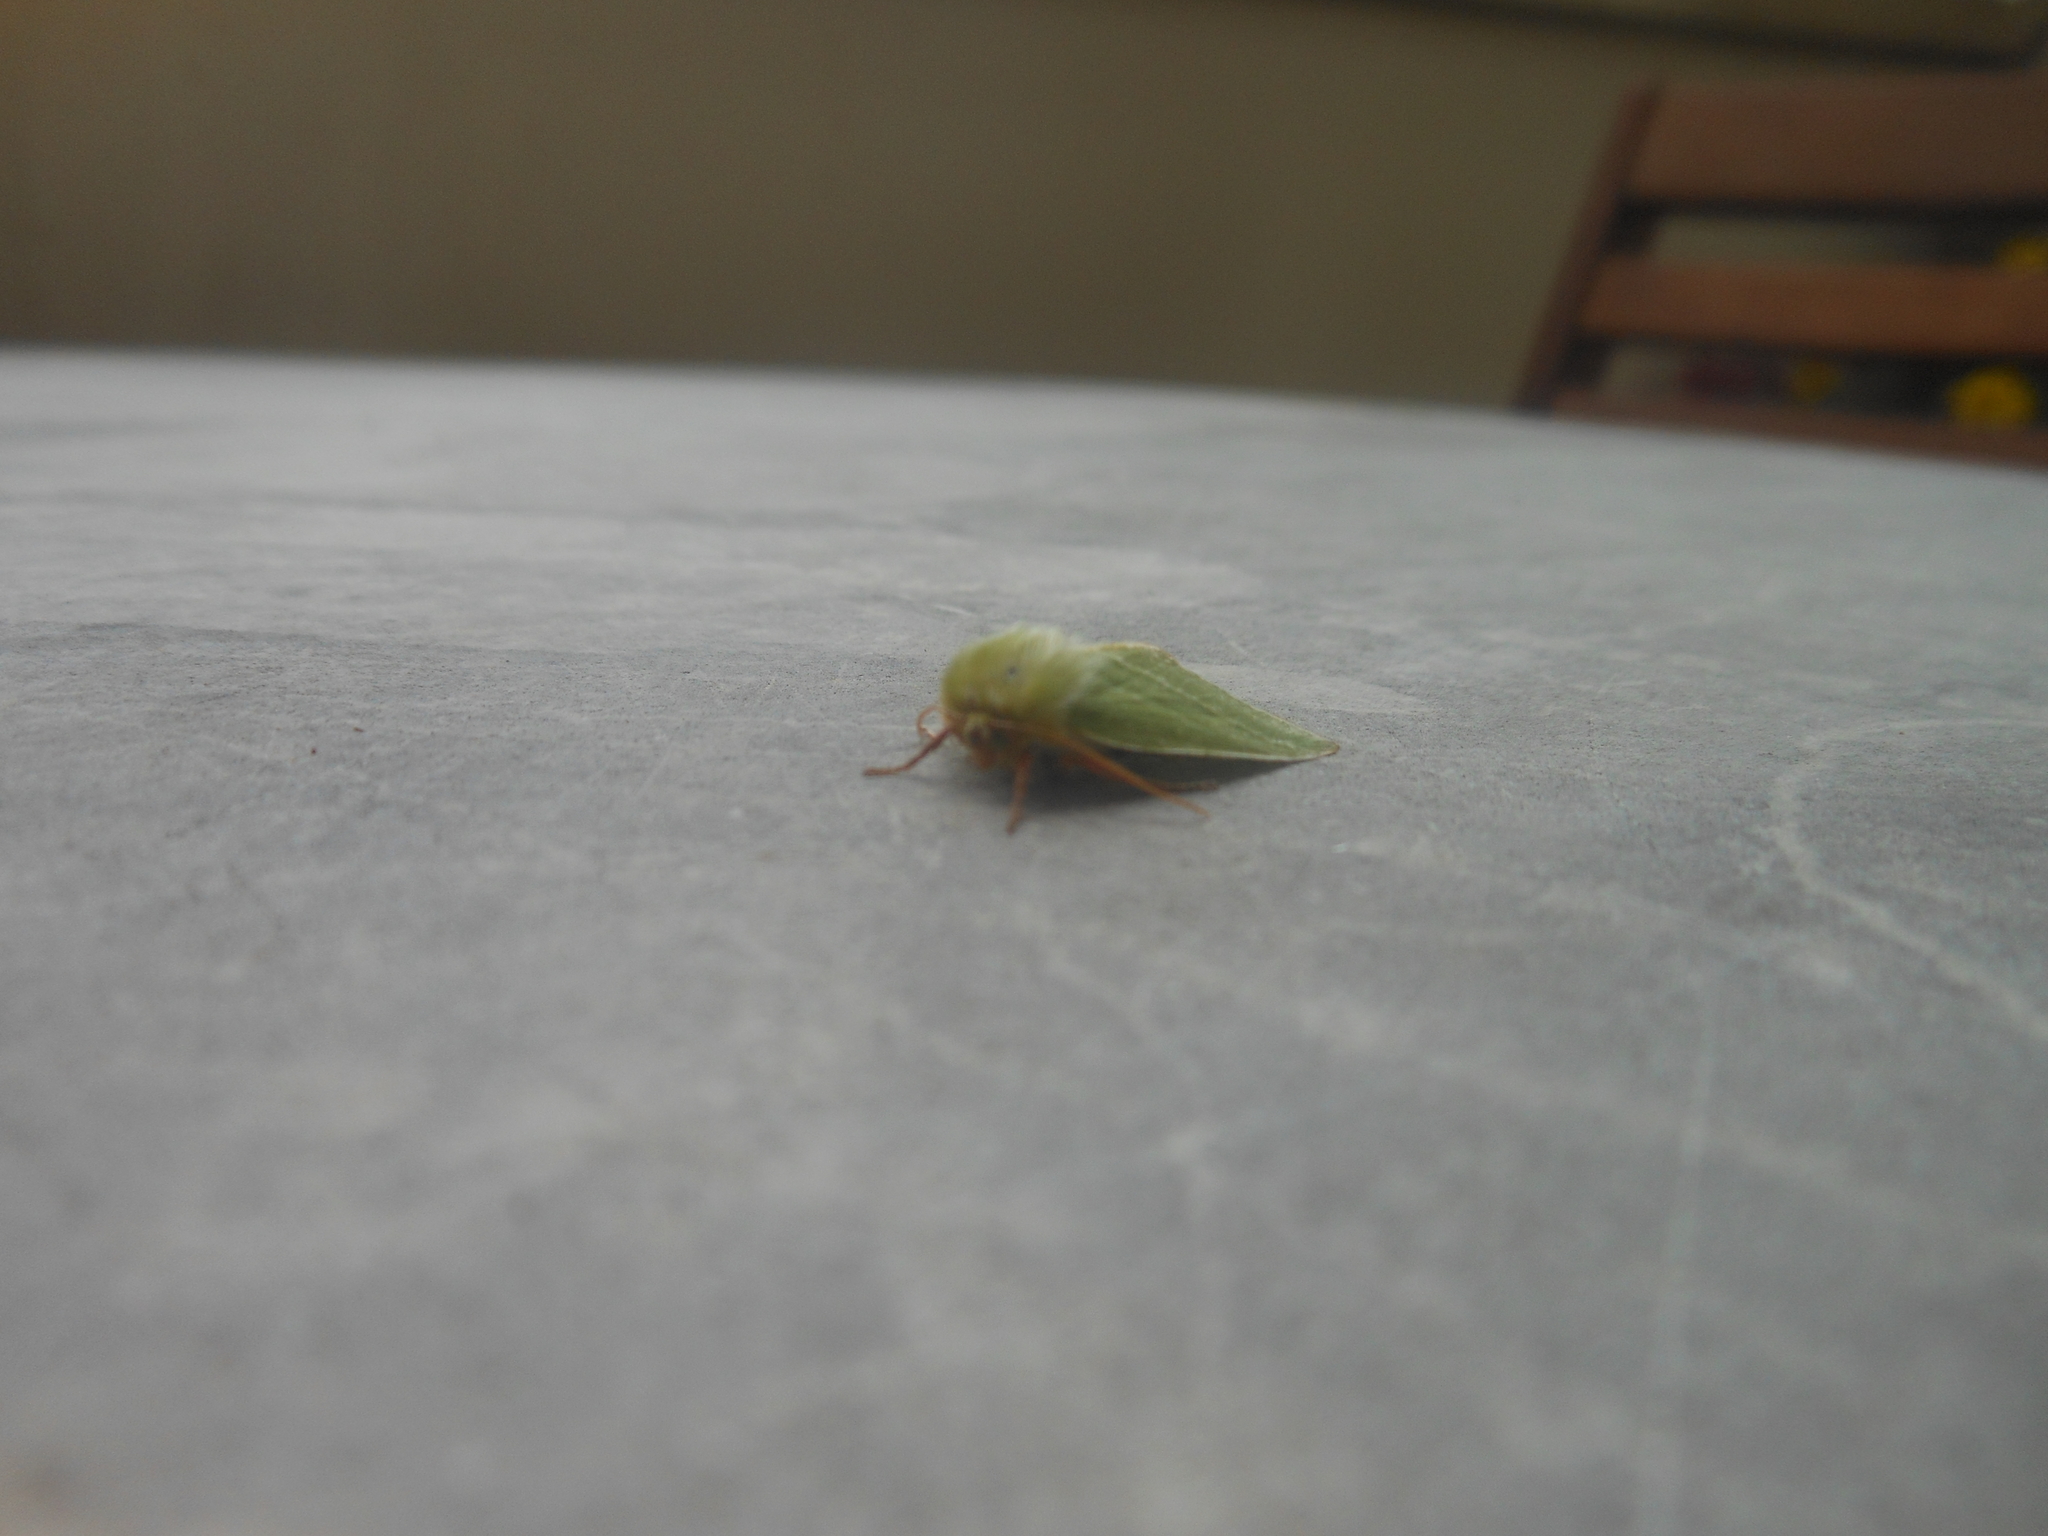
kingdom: Animalia
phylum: Arthropoda
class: Insecta
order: Lepidoptera
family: Nolidae
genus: Pseudoips
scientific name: Pseudoips prasinana
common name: Green silver-lines
